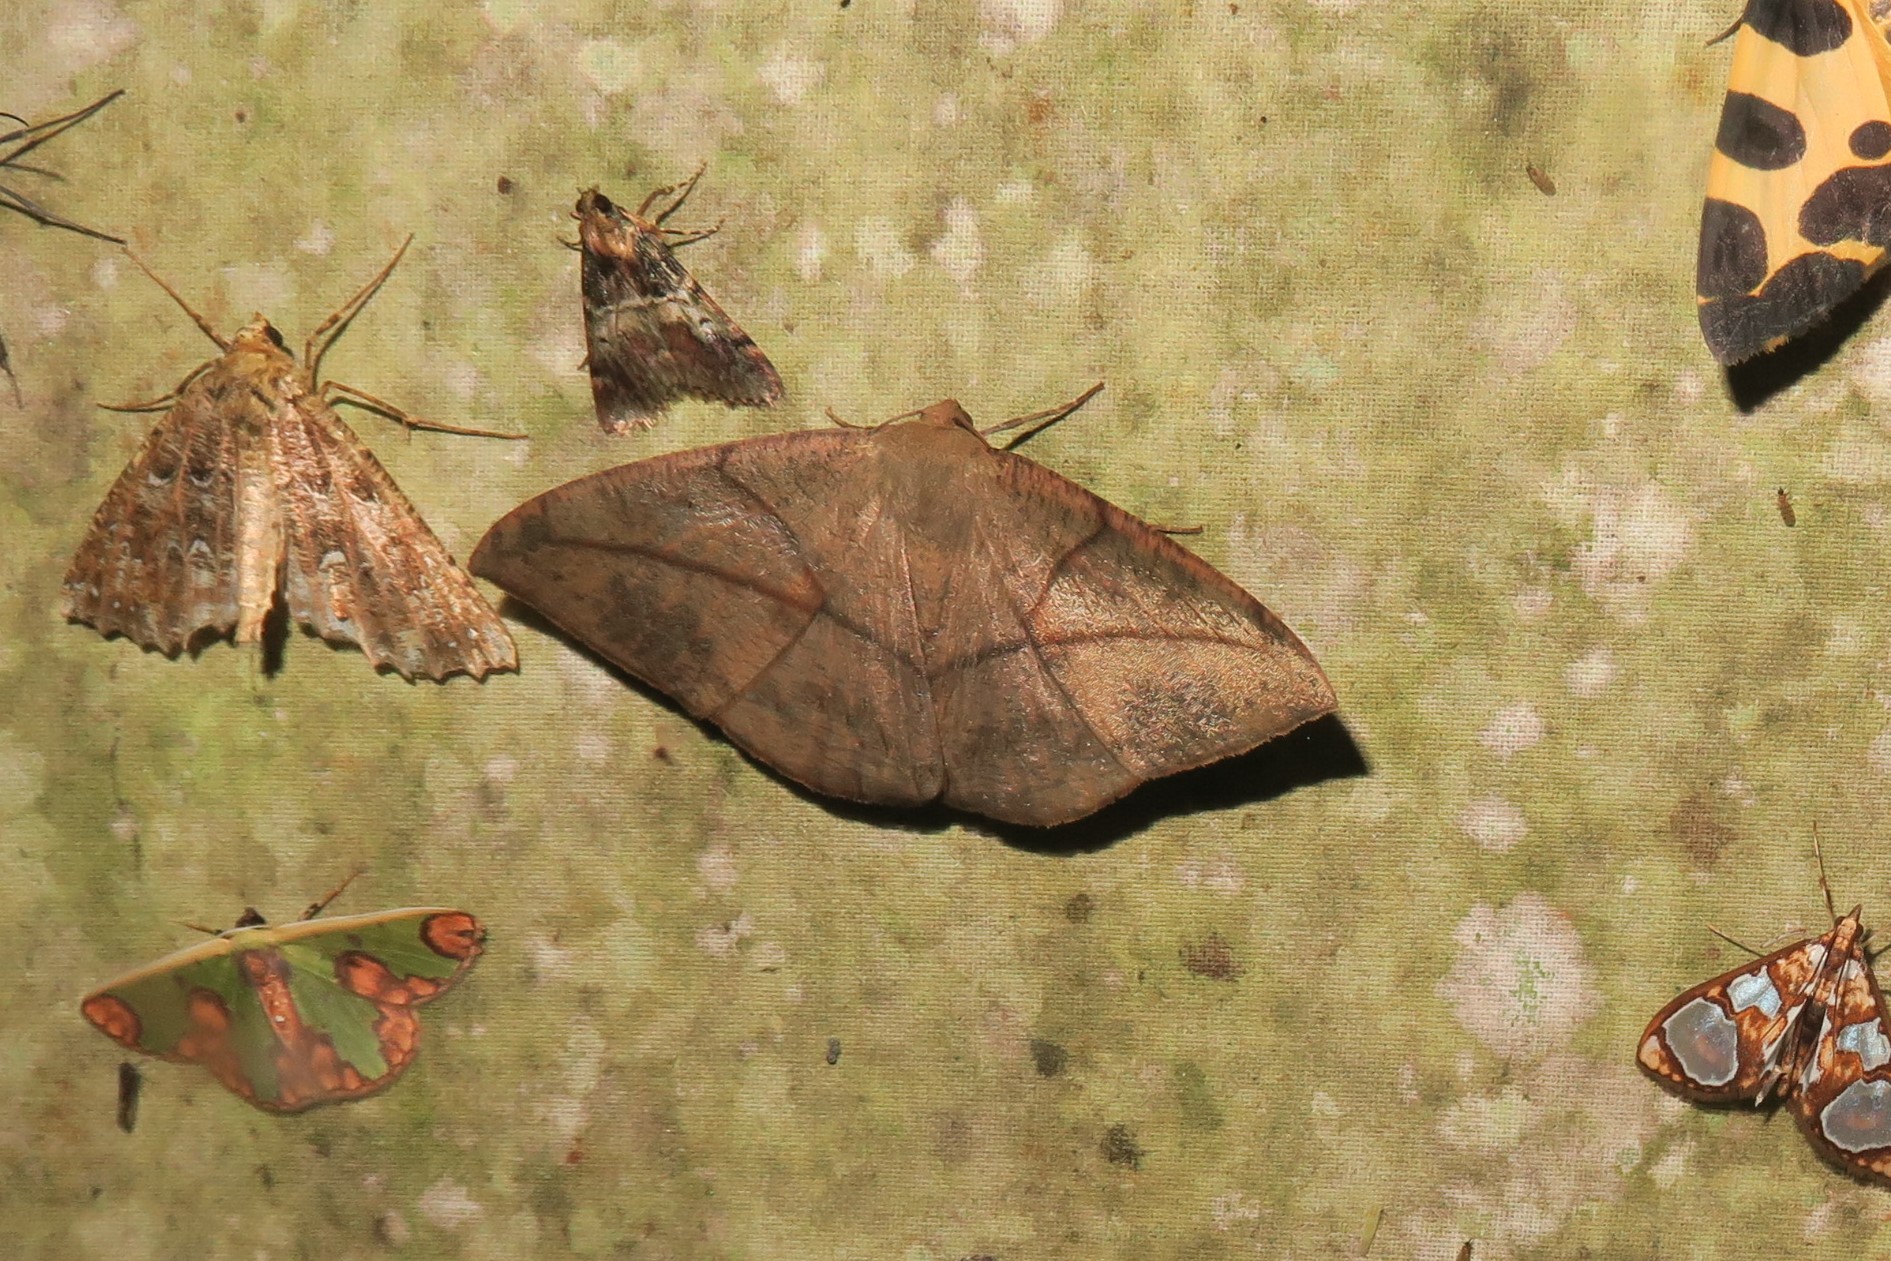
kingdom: Animalia
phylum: Arthropoda
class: Insecta
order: Lepidoptera
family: Geometridae
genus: Oxydia
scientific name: Oxydia trychiata
